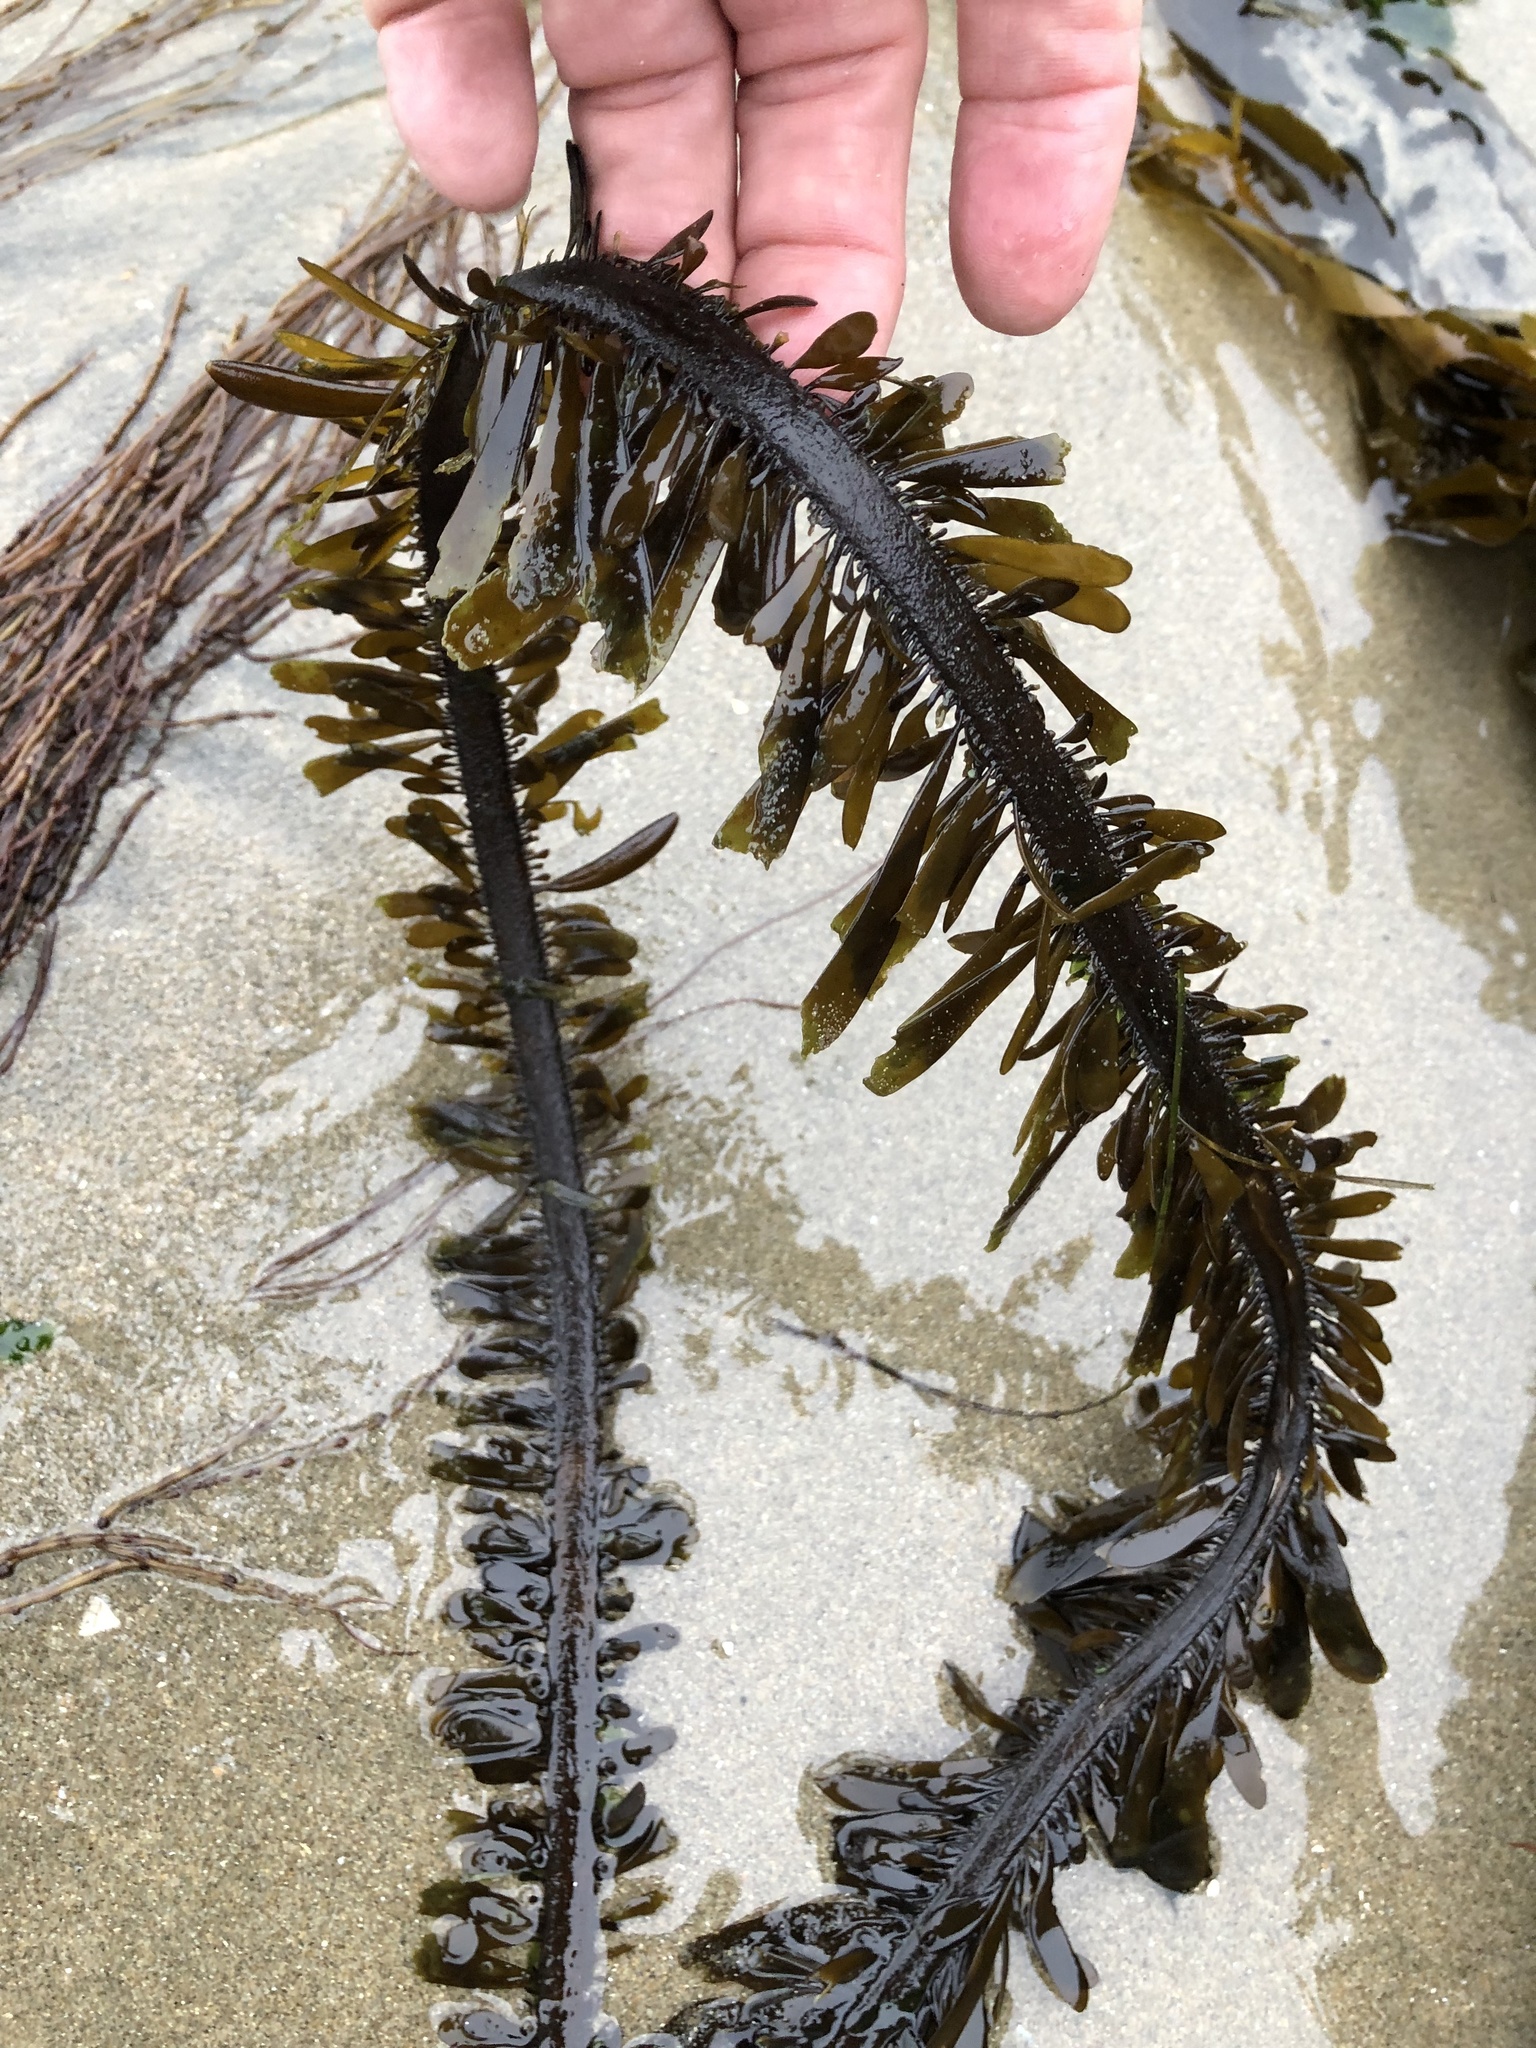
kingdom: Chromista
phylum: Ochrophyta
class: Phaeophyceae
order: Laminariales
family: Lessoniaceae
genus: Egregia
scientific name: Egregia menziesii
